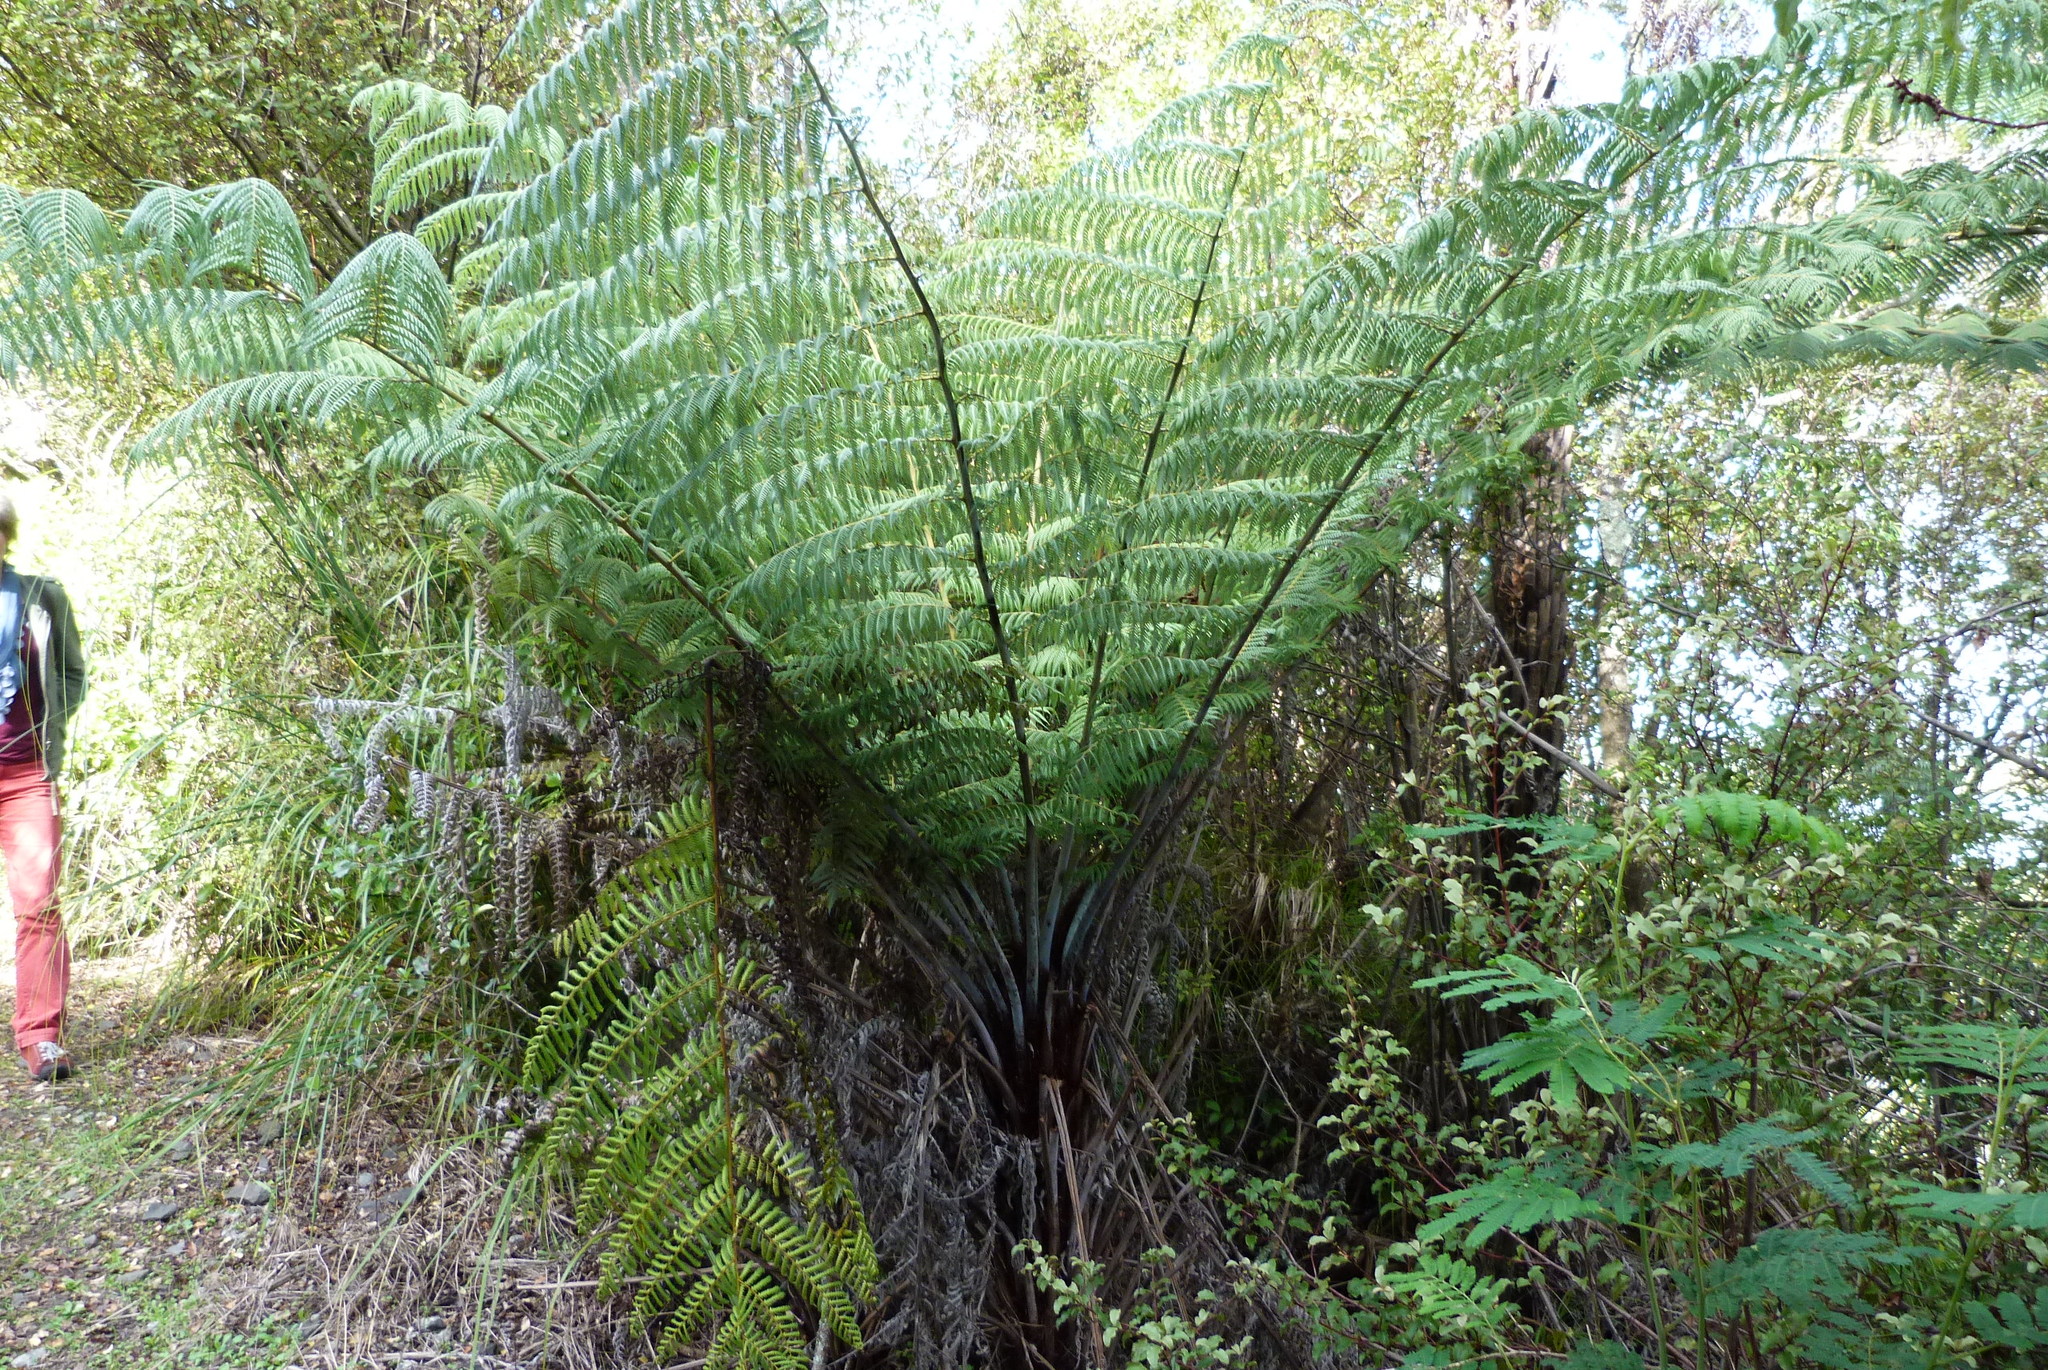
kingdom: Plantae
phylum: Tracheophyta
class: Polypodiopsida
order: Cyatheales
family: Cyatheaceae
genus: Alsophila
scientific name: Alsophila dealbata
